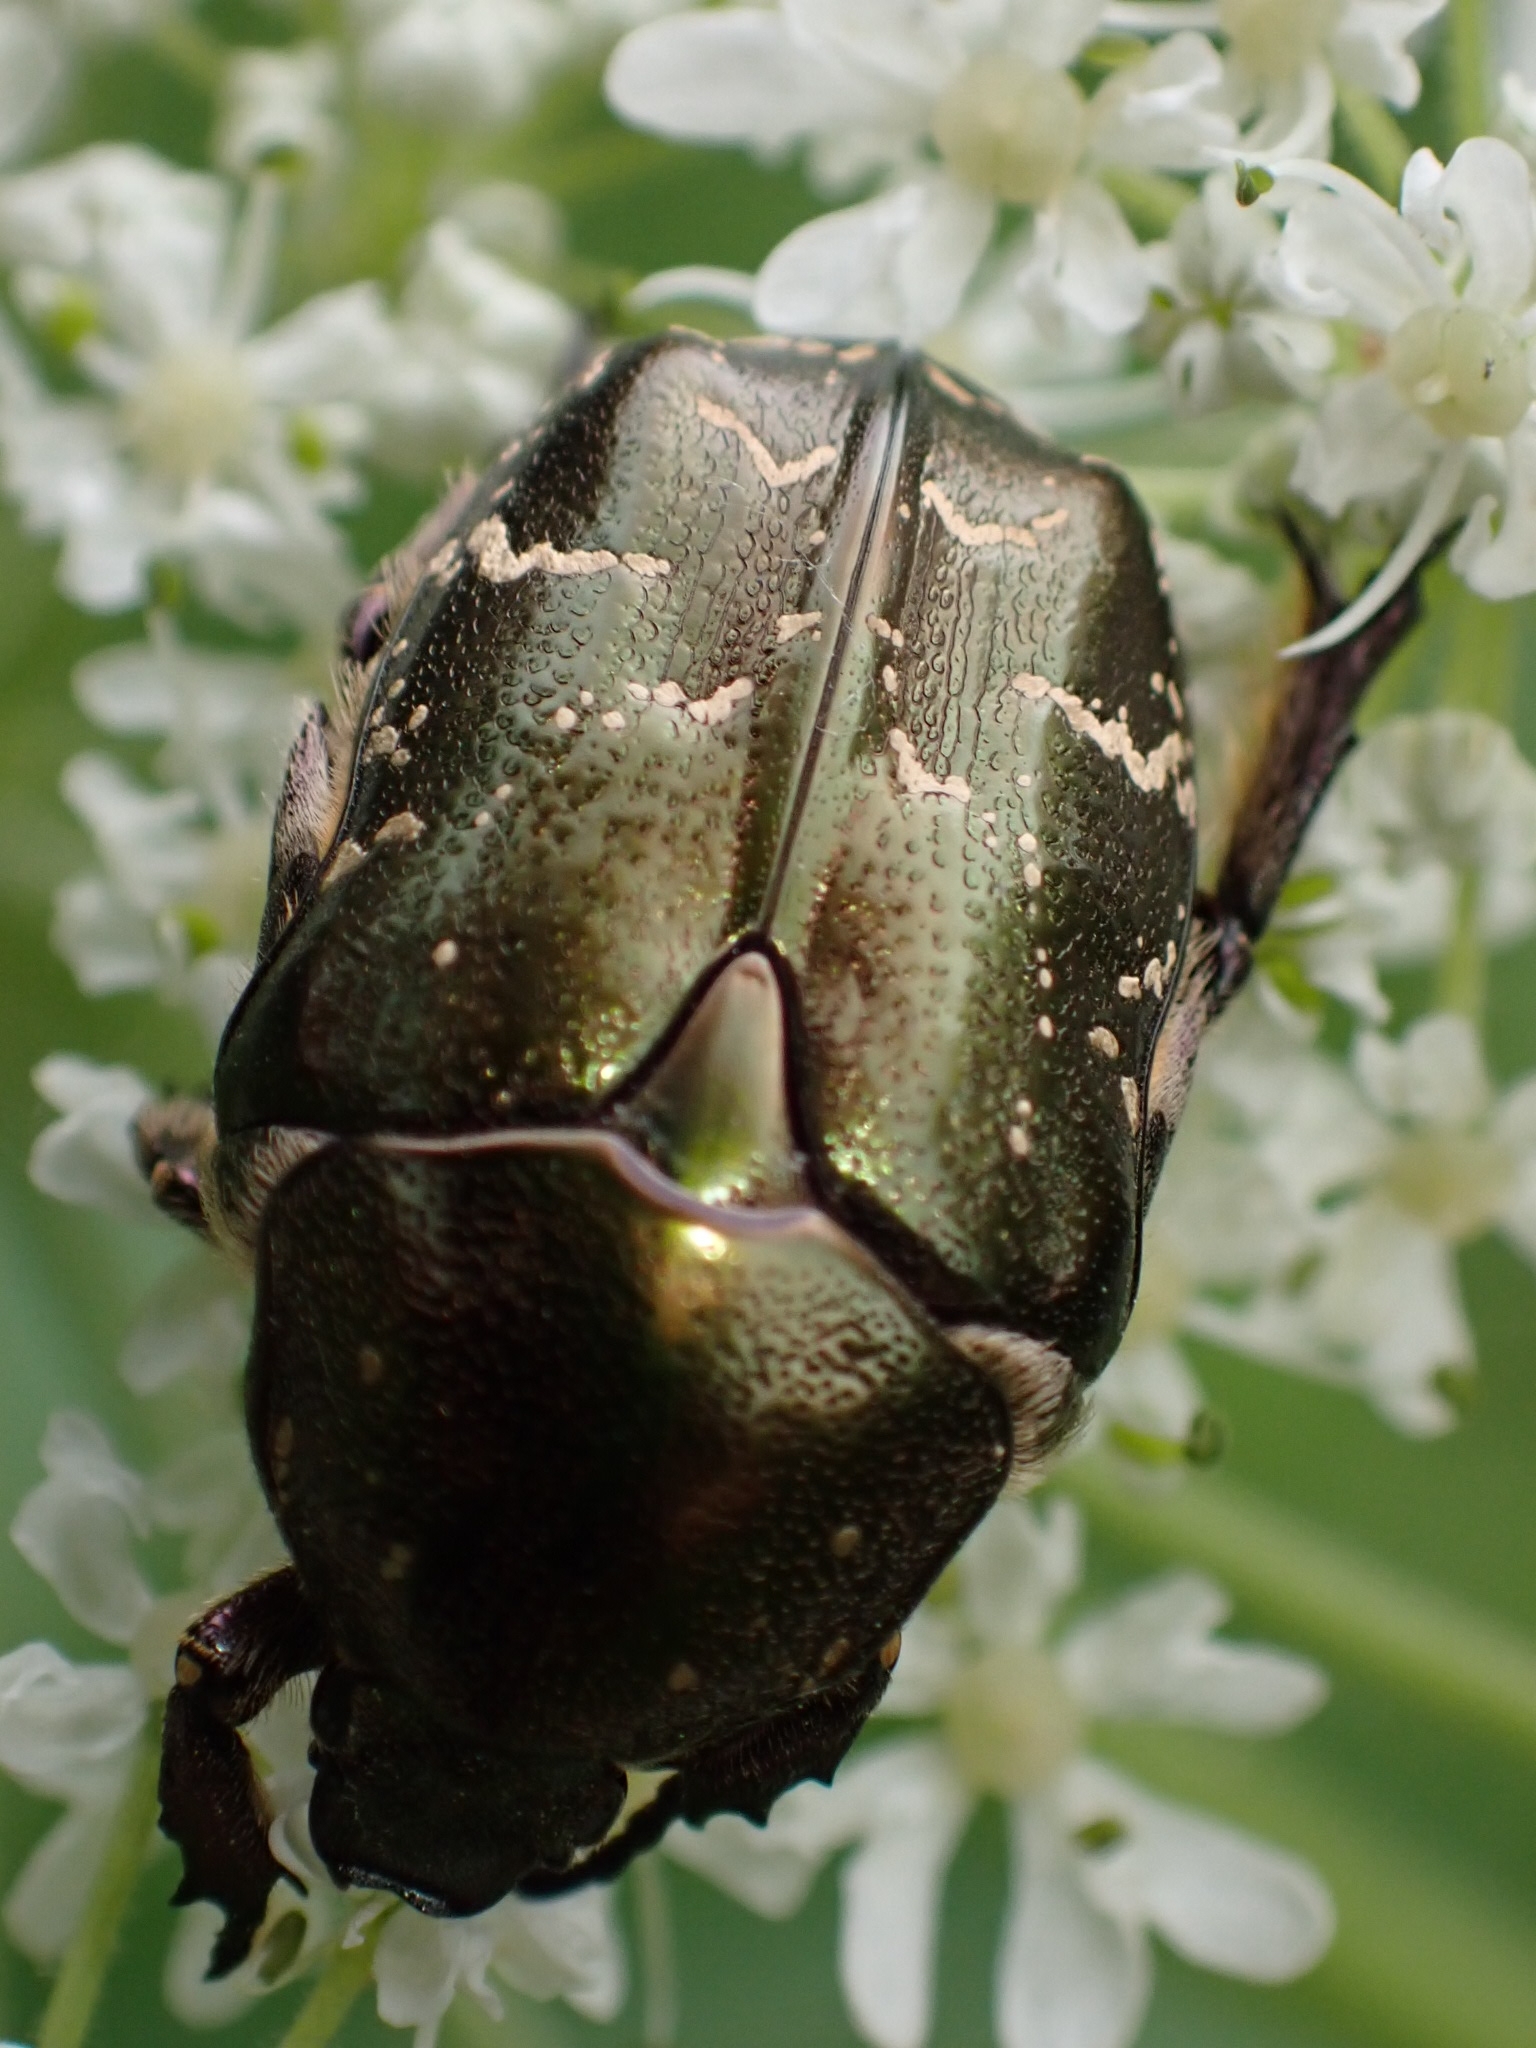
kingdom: Animalia
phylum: Arthropoda
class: Insecta
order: Coleoptera
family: Scarabaeidae
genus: Protaetia
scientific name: Protaetia cuprea
